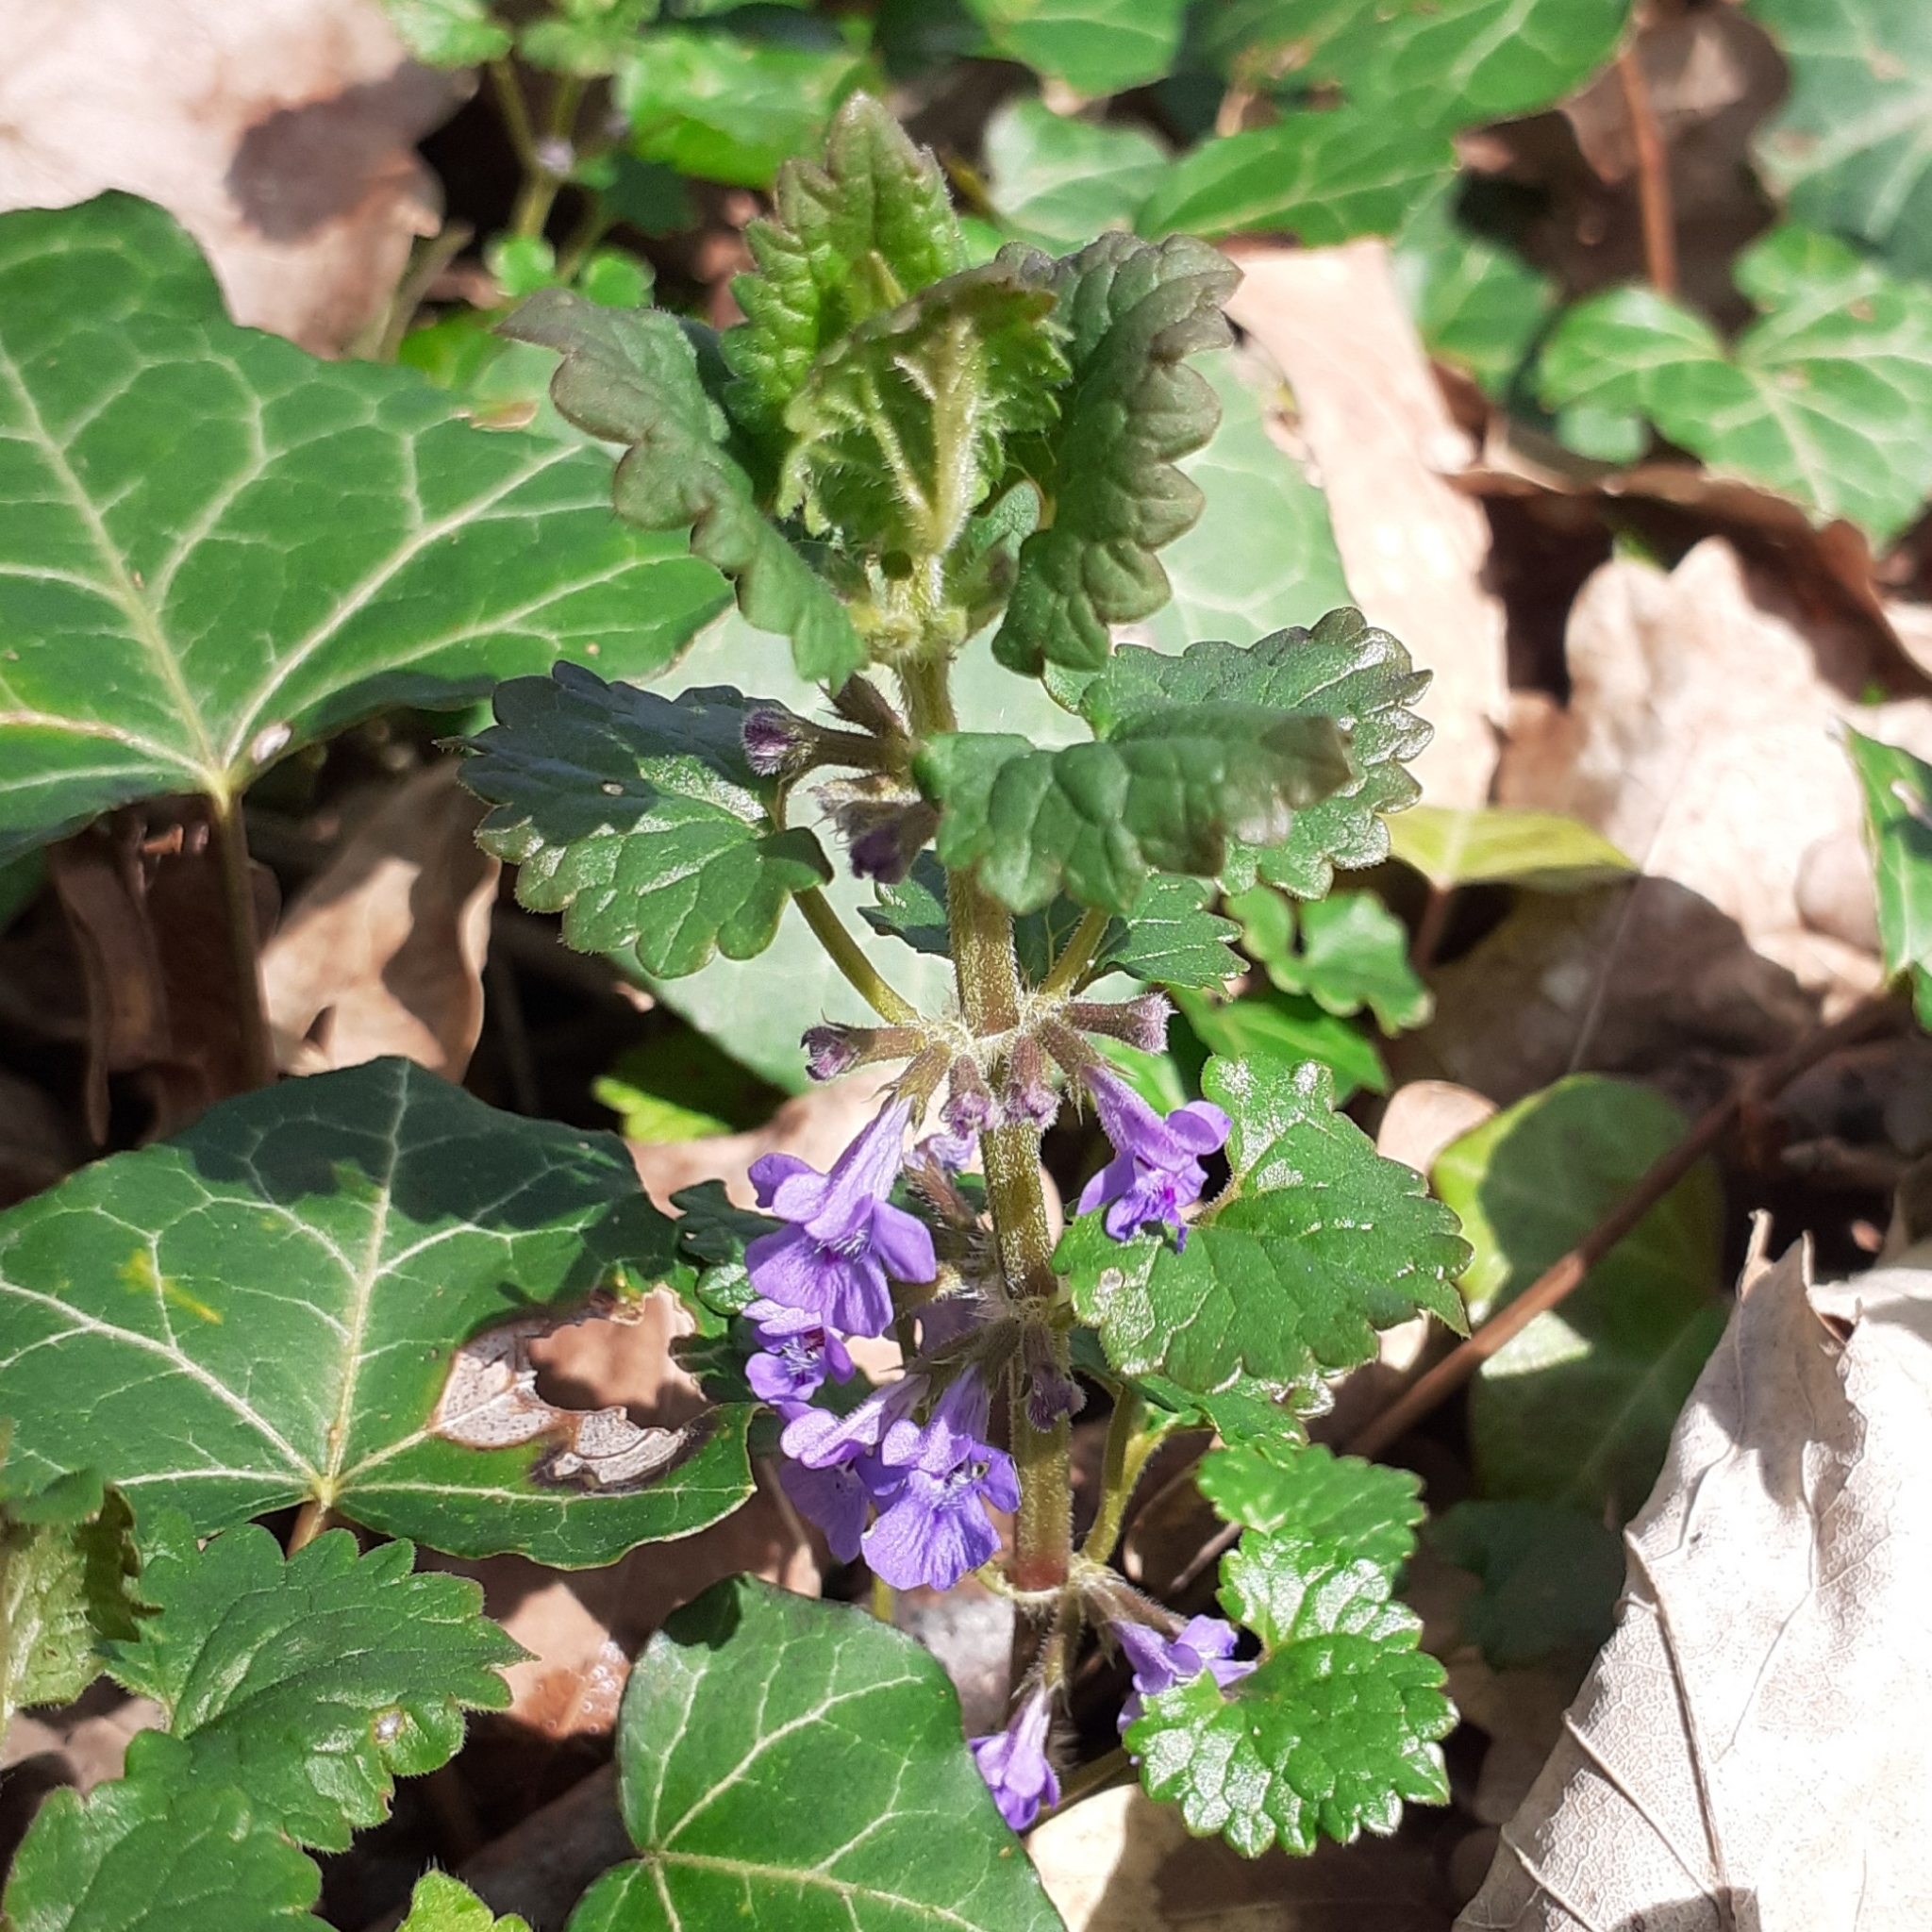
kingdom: Plantae
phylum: Tracheophyta
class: Magnoliopsida
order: Lamiales
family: Lamiaceae
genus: Glechoma
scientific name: Glechoma hederacea
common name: Ground ivy
